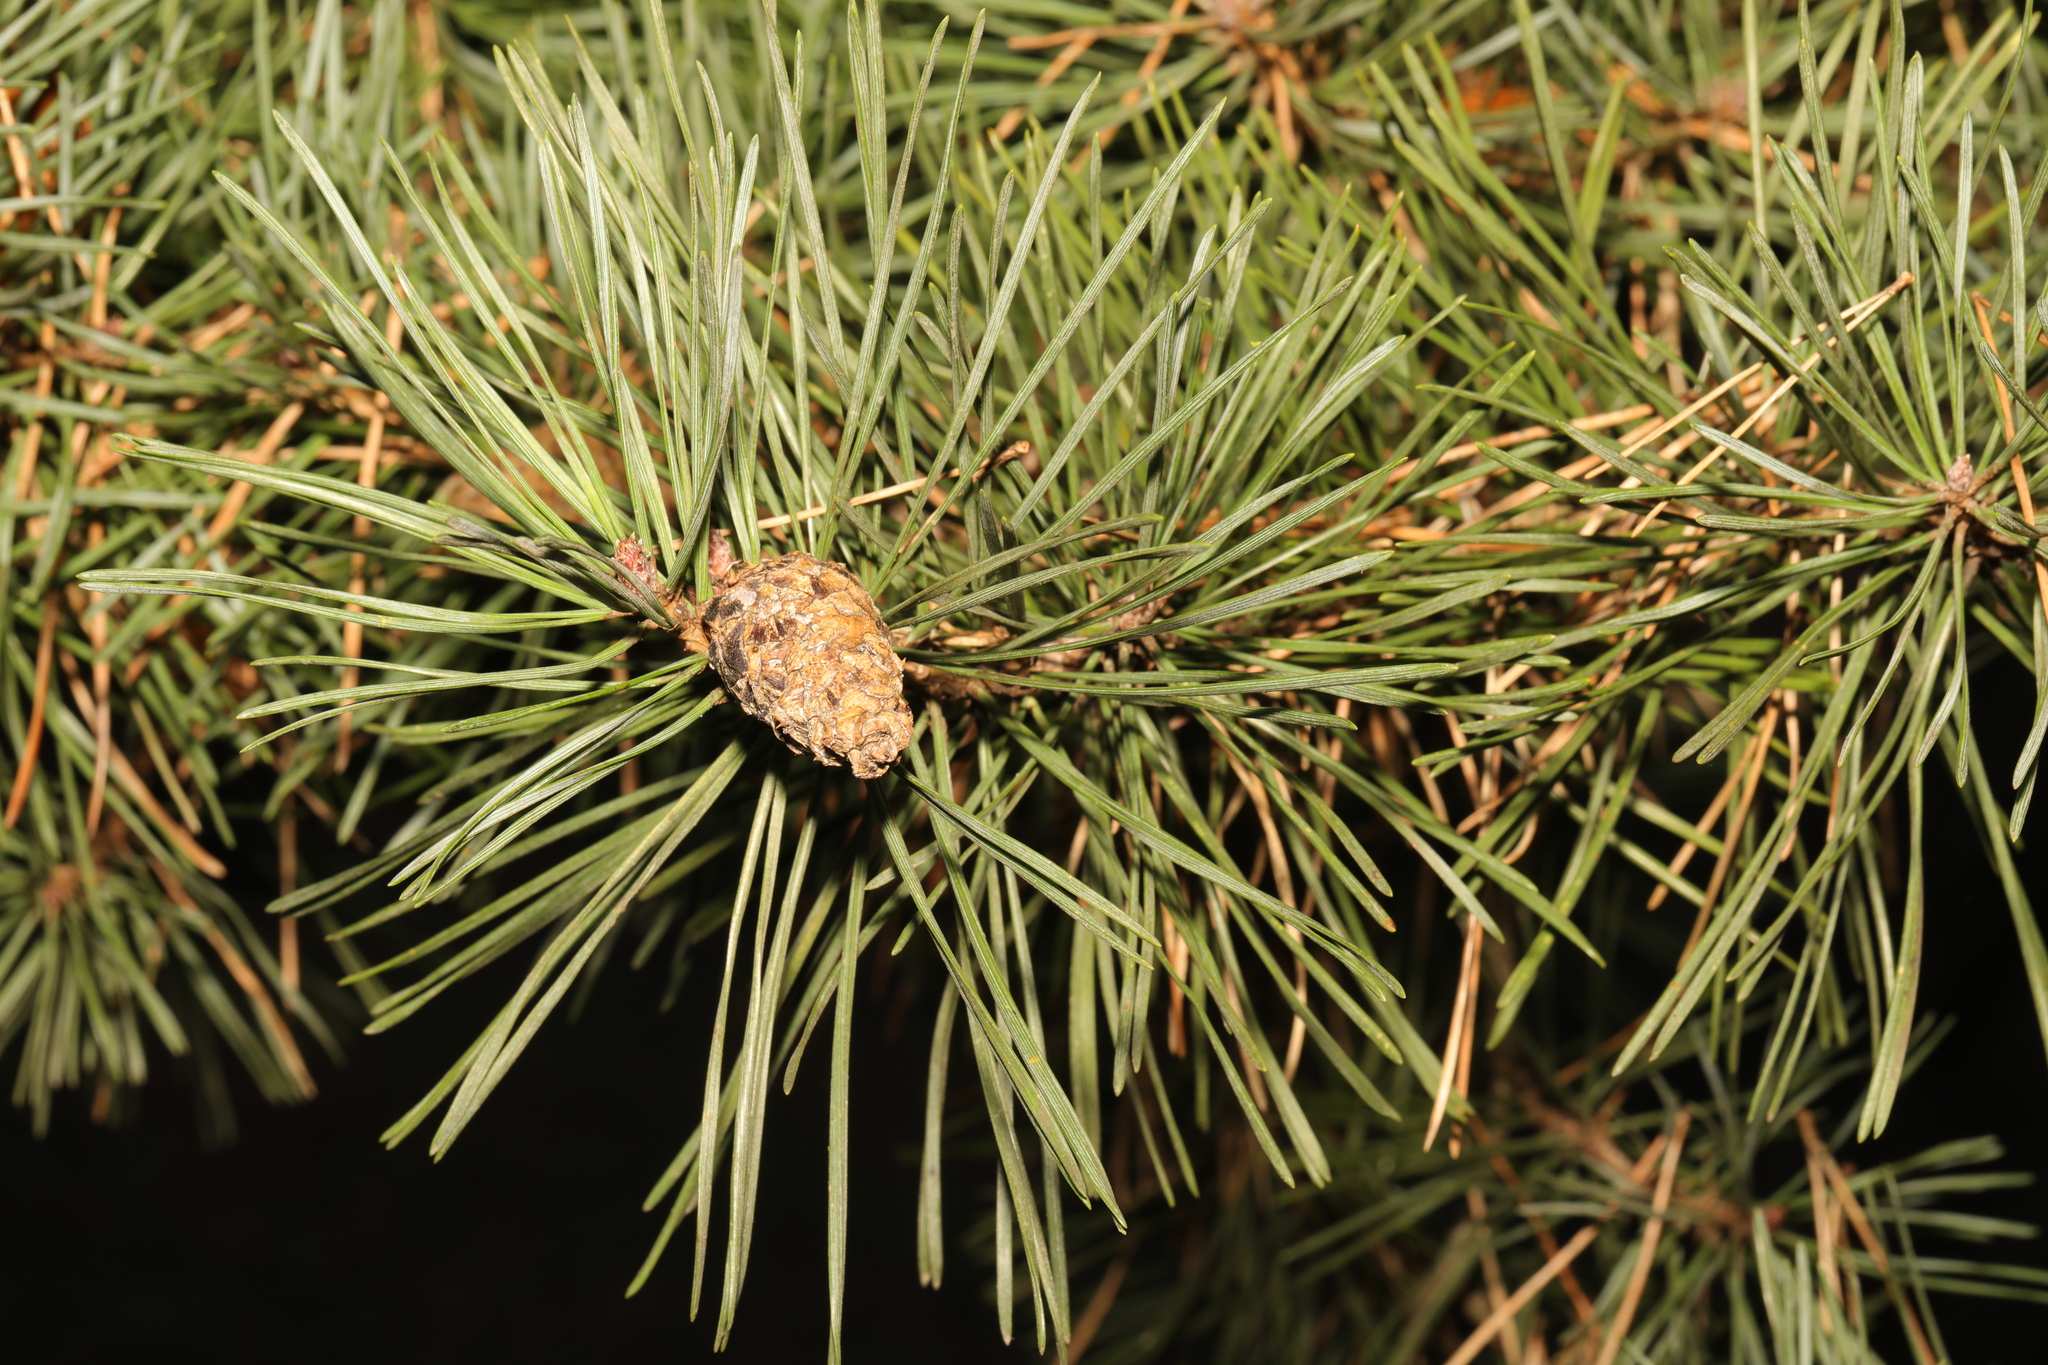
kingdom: Plantae
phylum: Tracheophyta
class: Pinopsida
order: Pinales
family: Pinaceae
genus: Pinus
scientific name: Pinus sylvestris
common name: Scots pine
